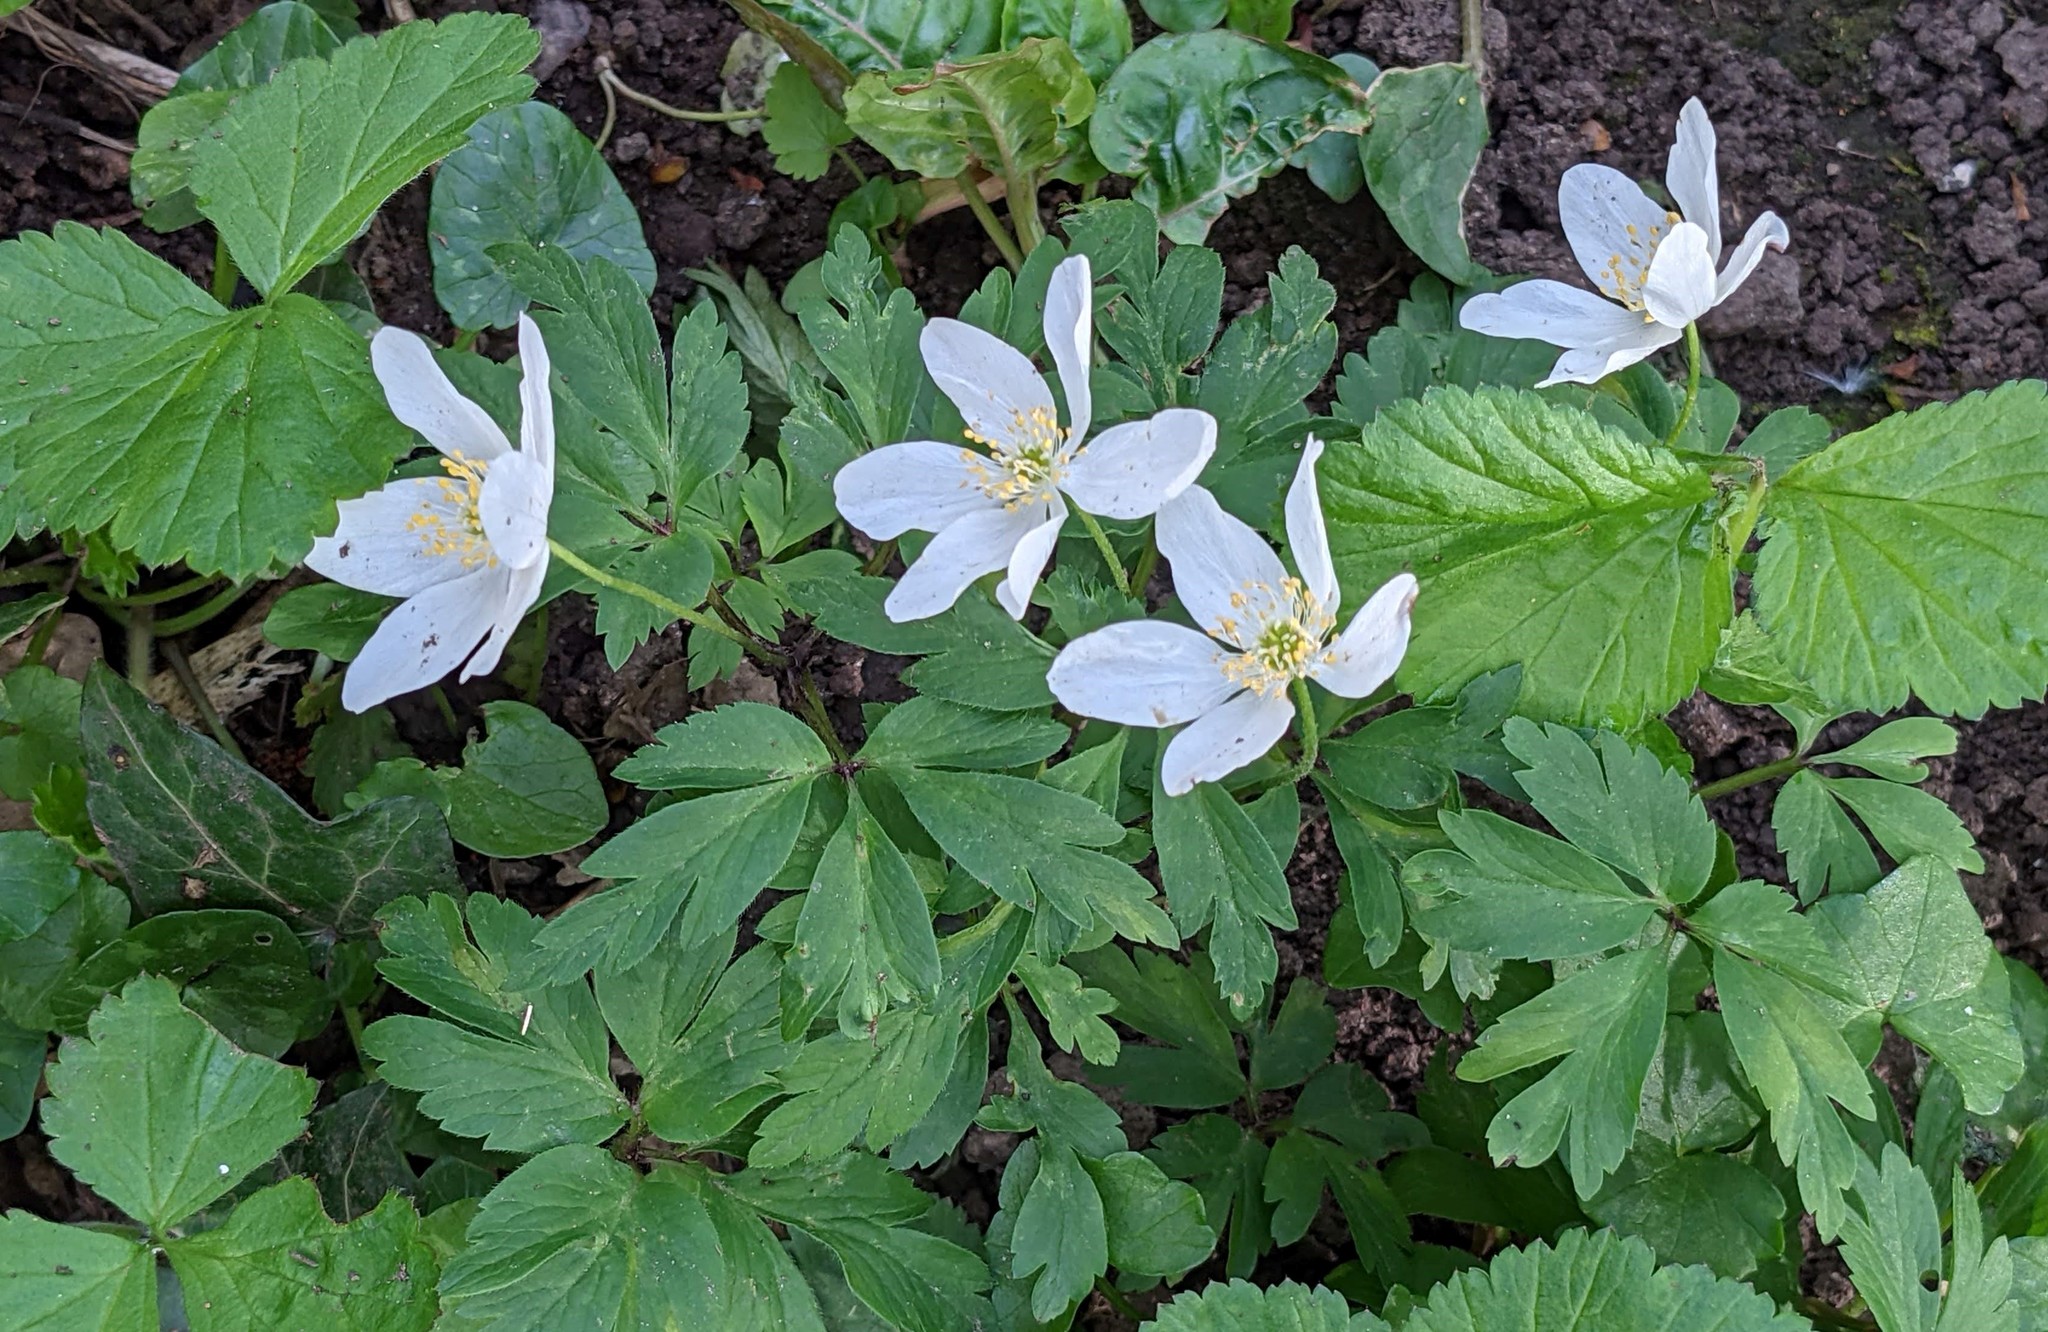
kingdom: Plantae
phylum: Tracheophyta
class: Magnoliopsida
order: Ranunculales
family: Ranunculaceae
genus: Anemone
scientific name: Anemone nemorosa
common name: Wood anemone
